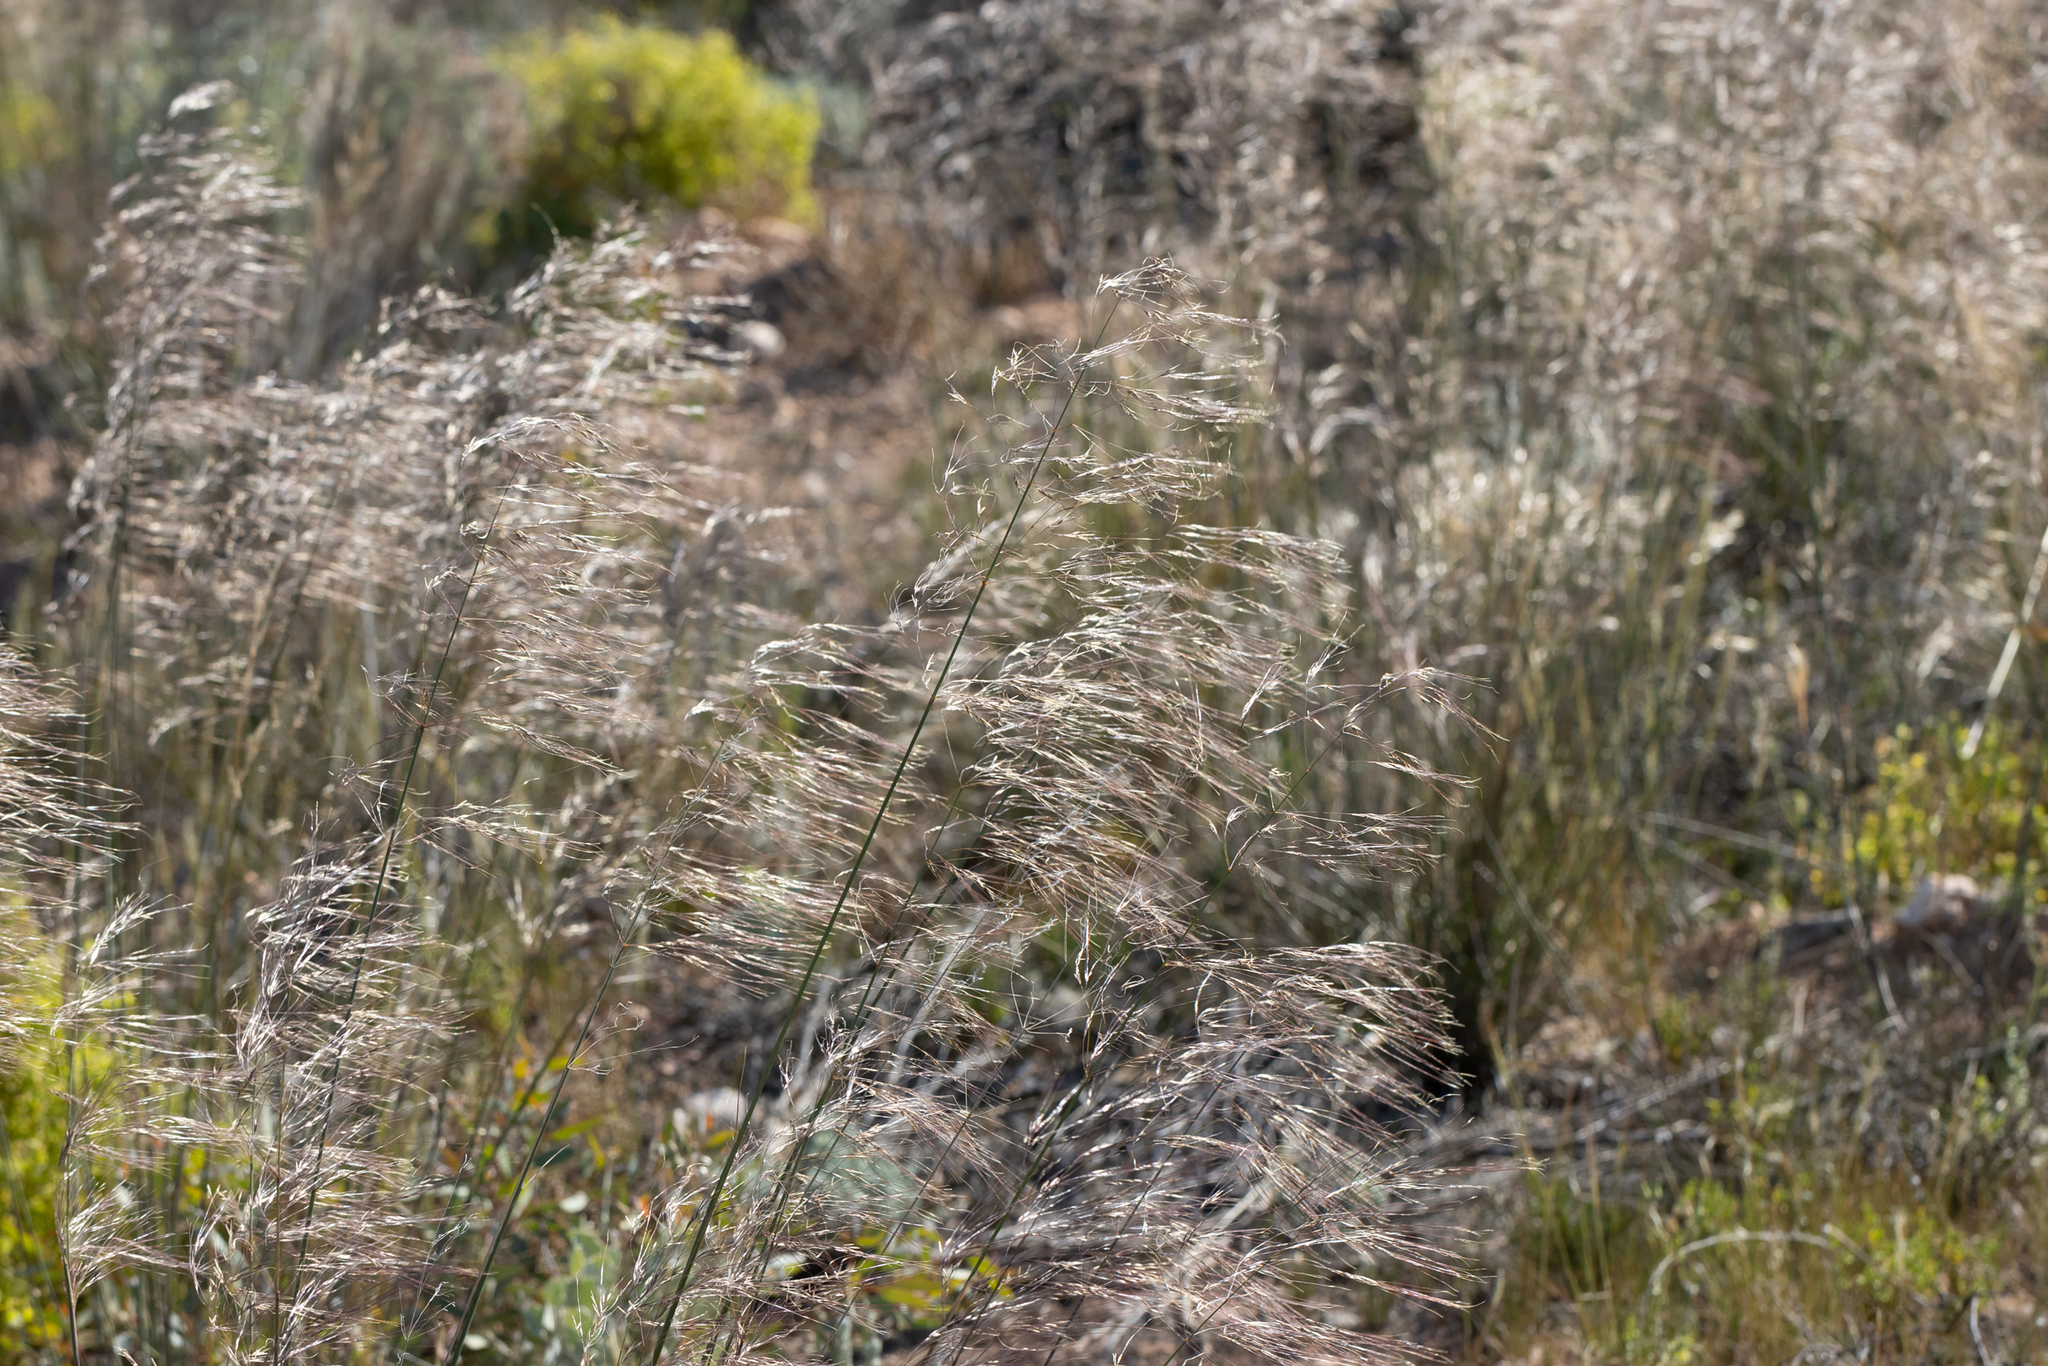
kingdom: Plantae
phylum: Tracheophyta
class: Liliopsida
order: Poales
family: Poaceae
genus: Austrostipa
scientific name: Austrostipa acrociliata
